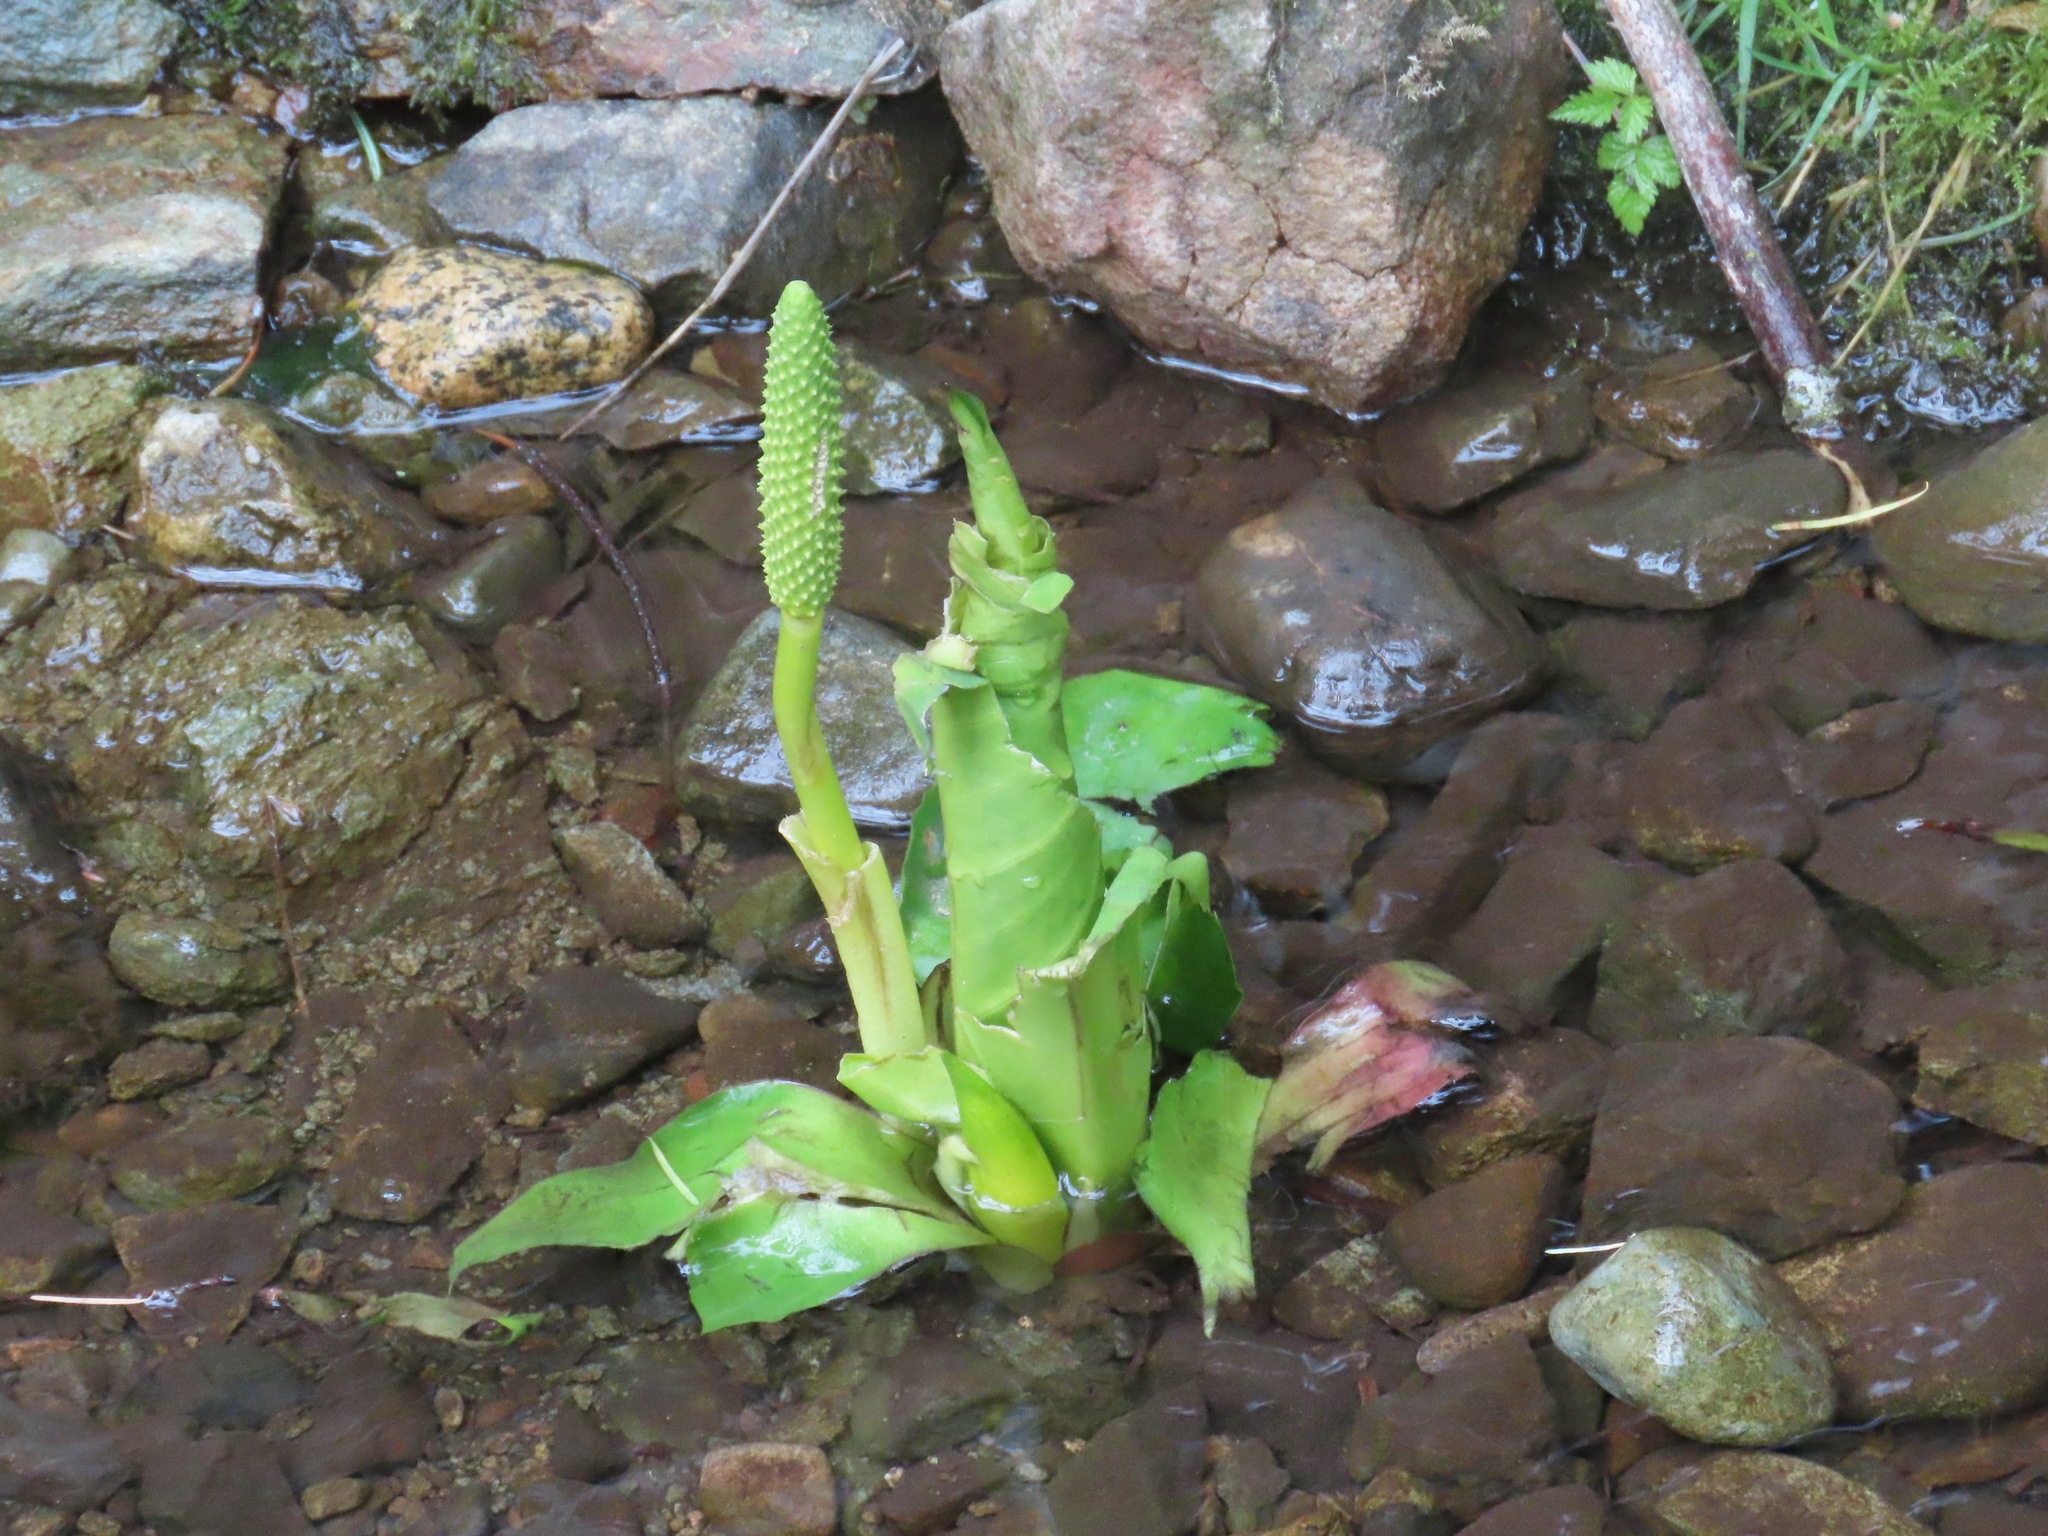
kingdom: Plantae
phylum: Tracheophyta
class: Liliopsida
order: Alismatales
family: Araceae
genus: Lysichiton
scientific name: Lysichiton americanus
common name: American skunk cabbage
